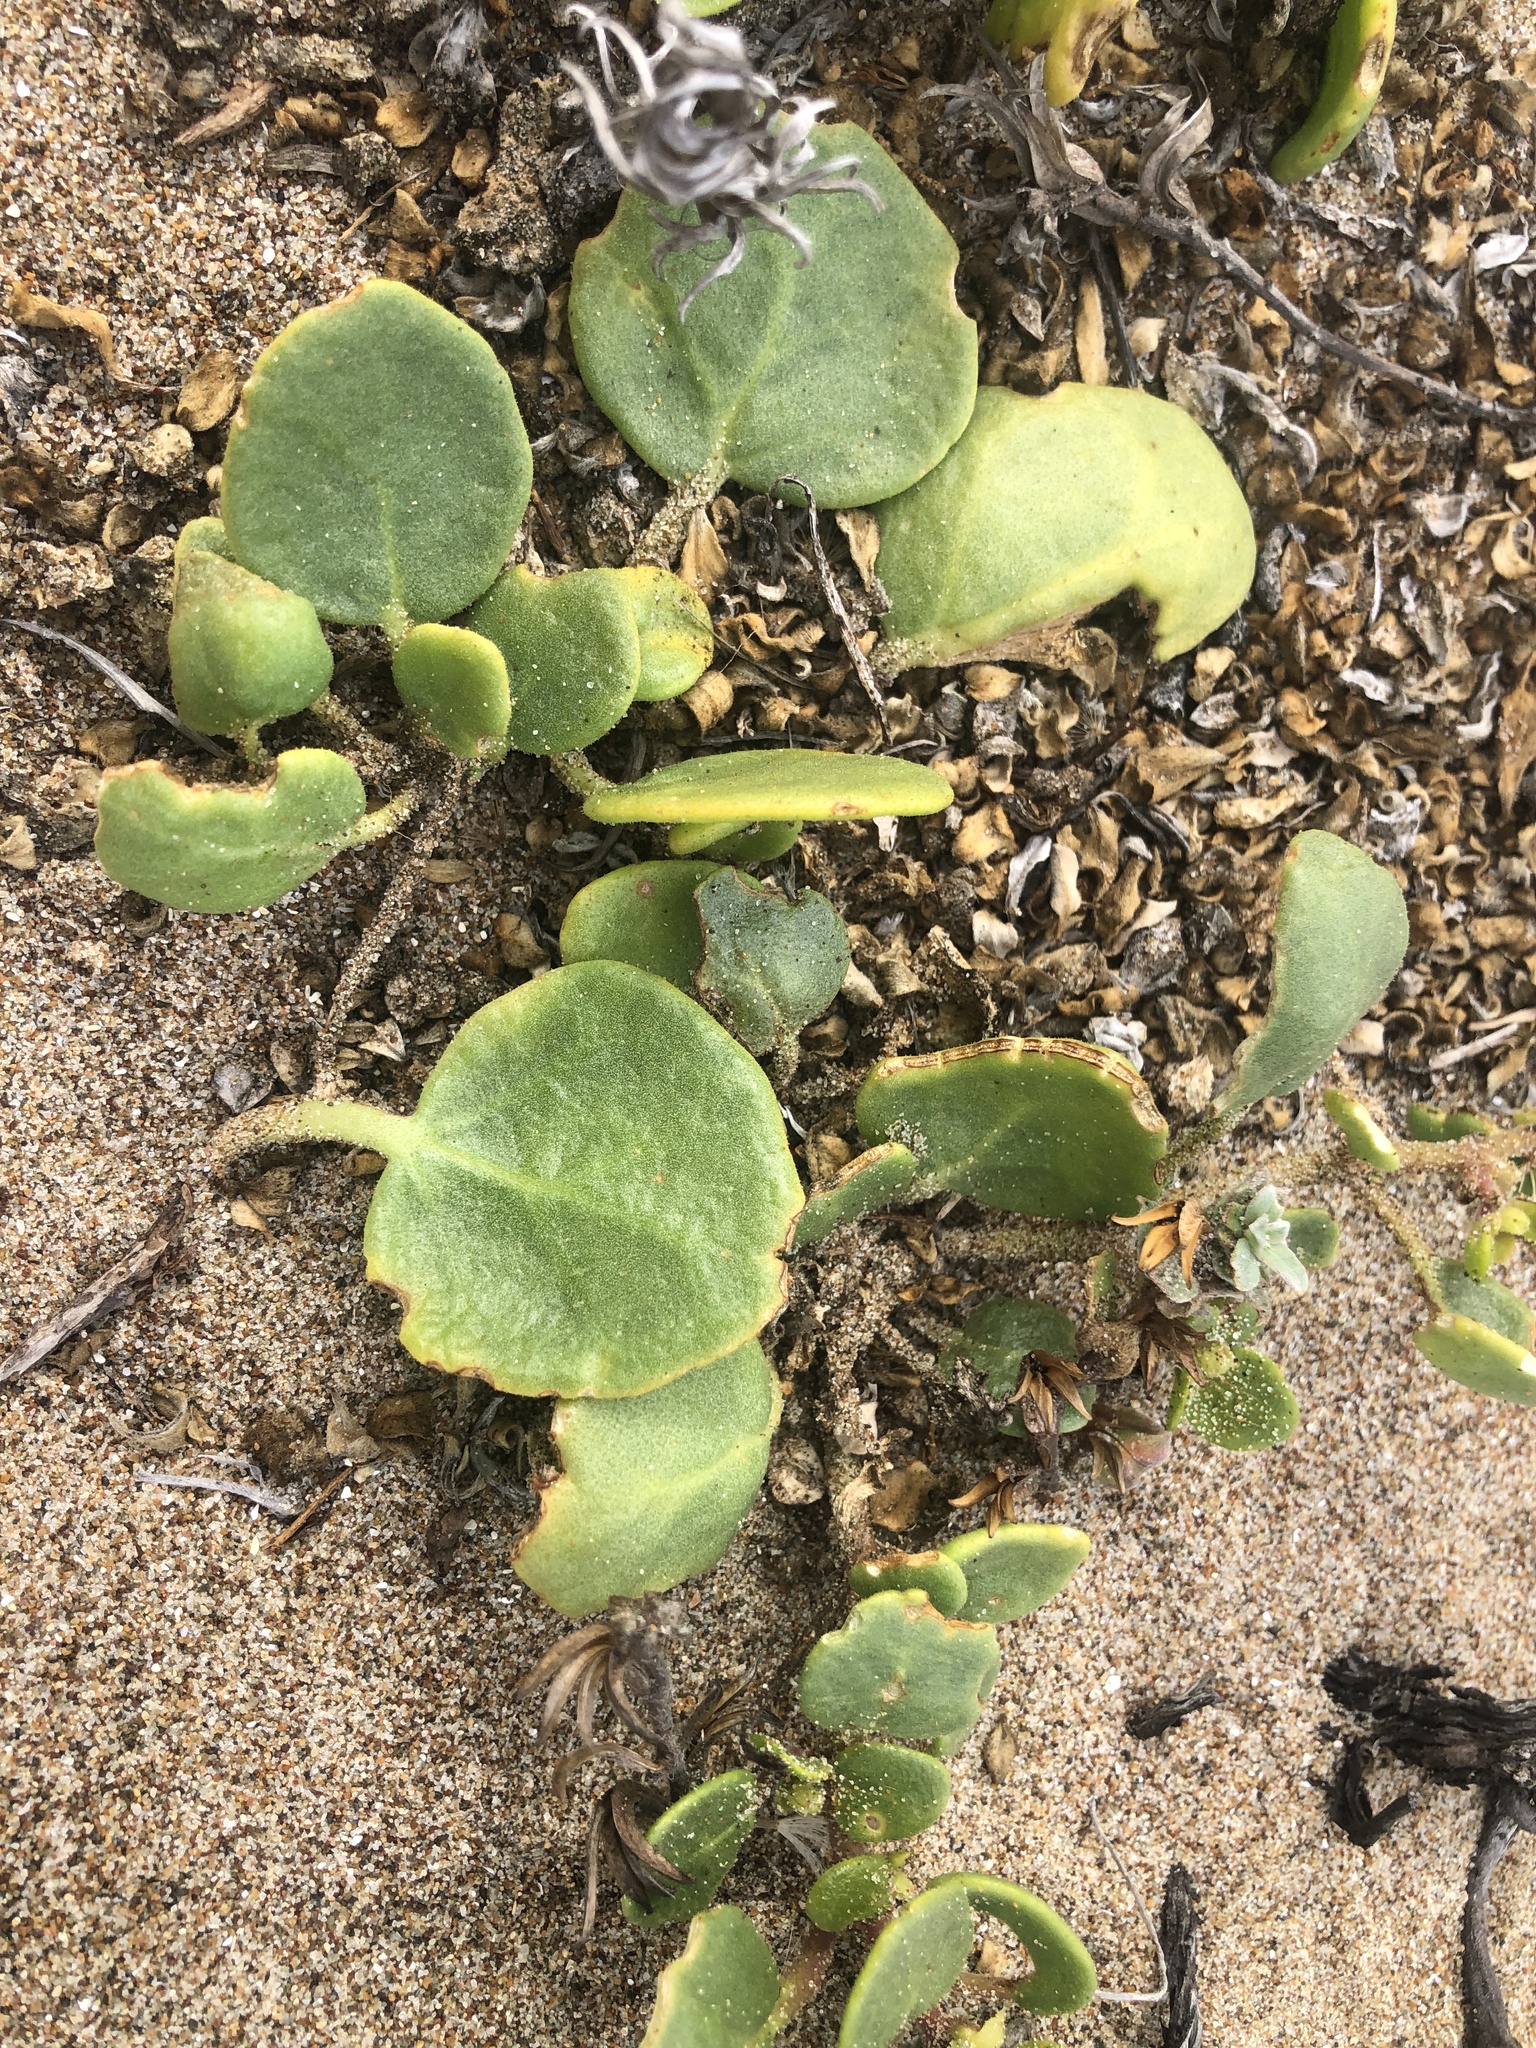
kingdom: Plantae
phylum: Tracheophyta
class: Magnoliopsida
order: Caryophyllales
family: Nyctaginaceae
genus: Abronia
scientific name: Abronia latifolia
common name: Yellow sand-verbena
